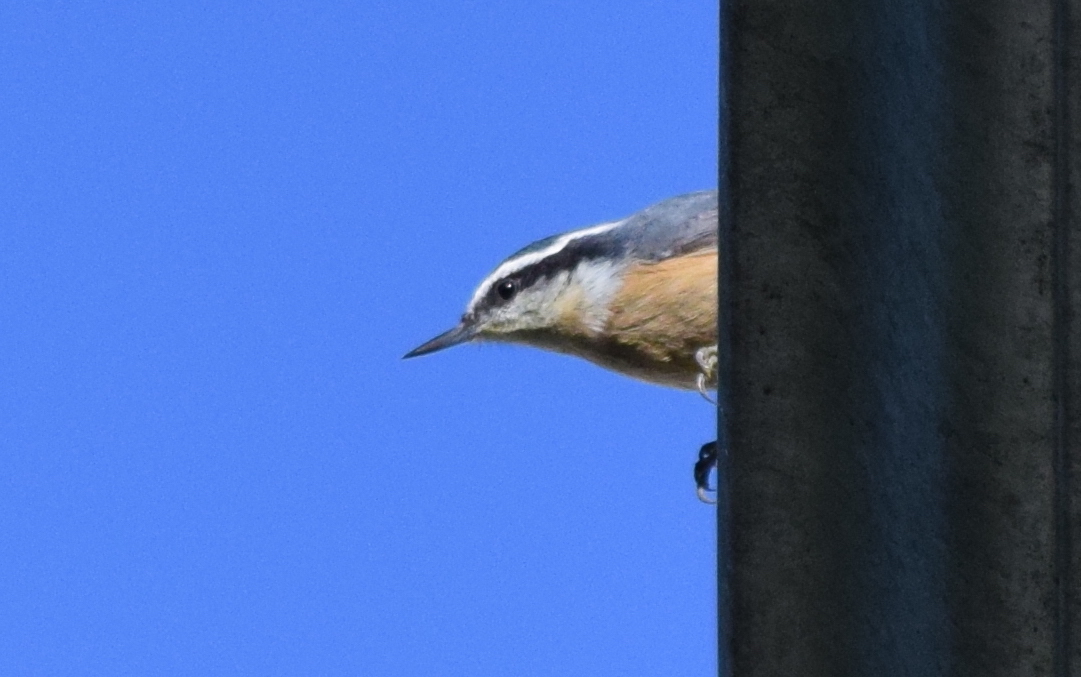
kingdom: Animalia
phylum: Chordata
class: Aves
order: Passeriformes
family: Sittidae
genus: Sitta
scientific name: Sitta canadensis
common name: Red-breasted nuthatch
